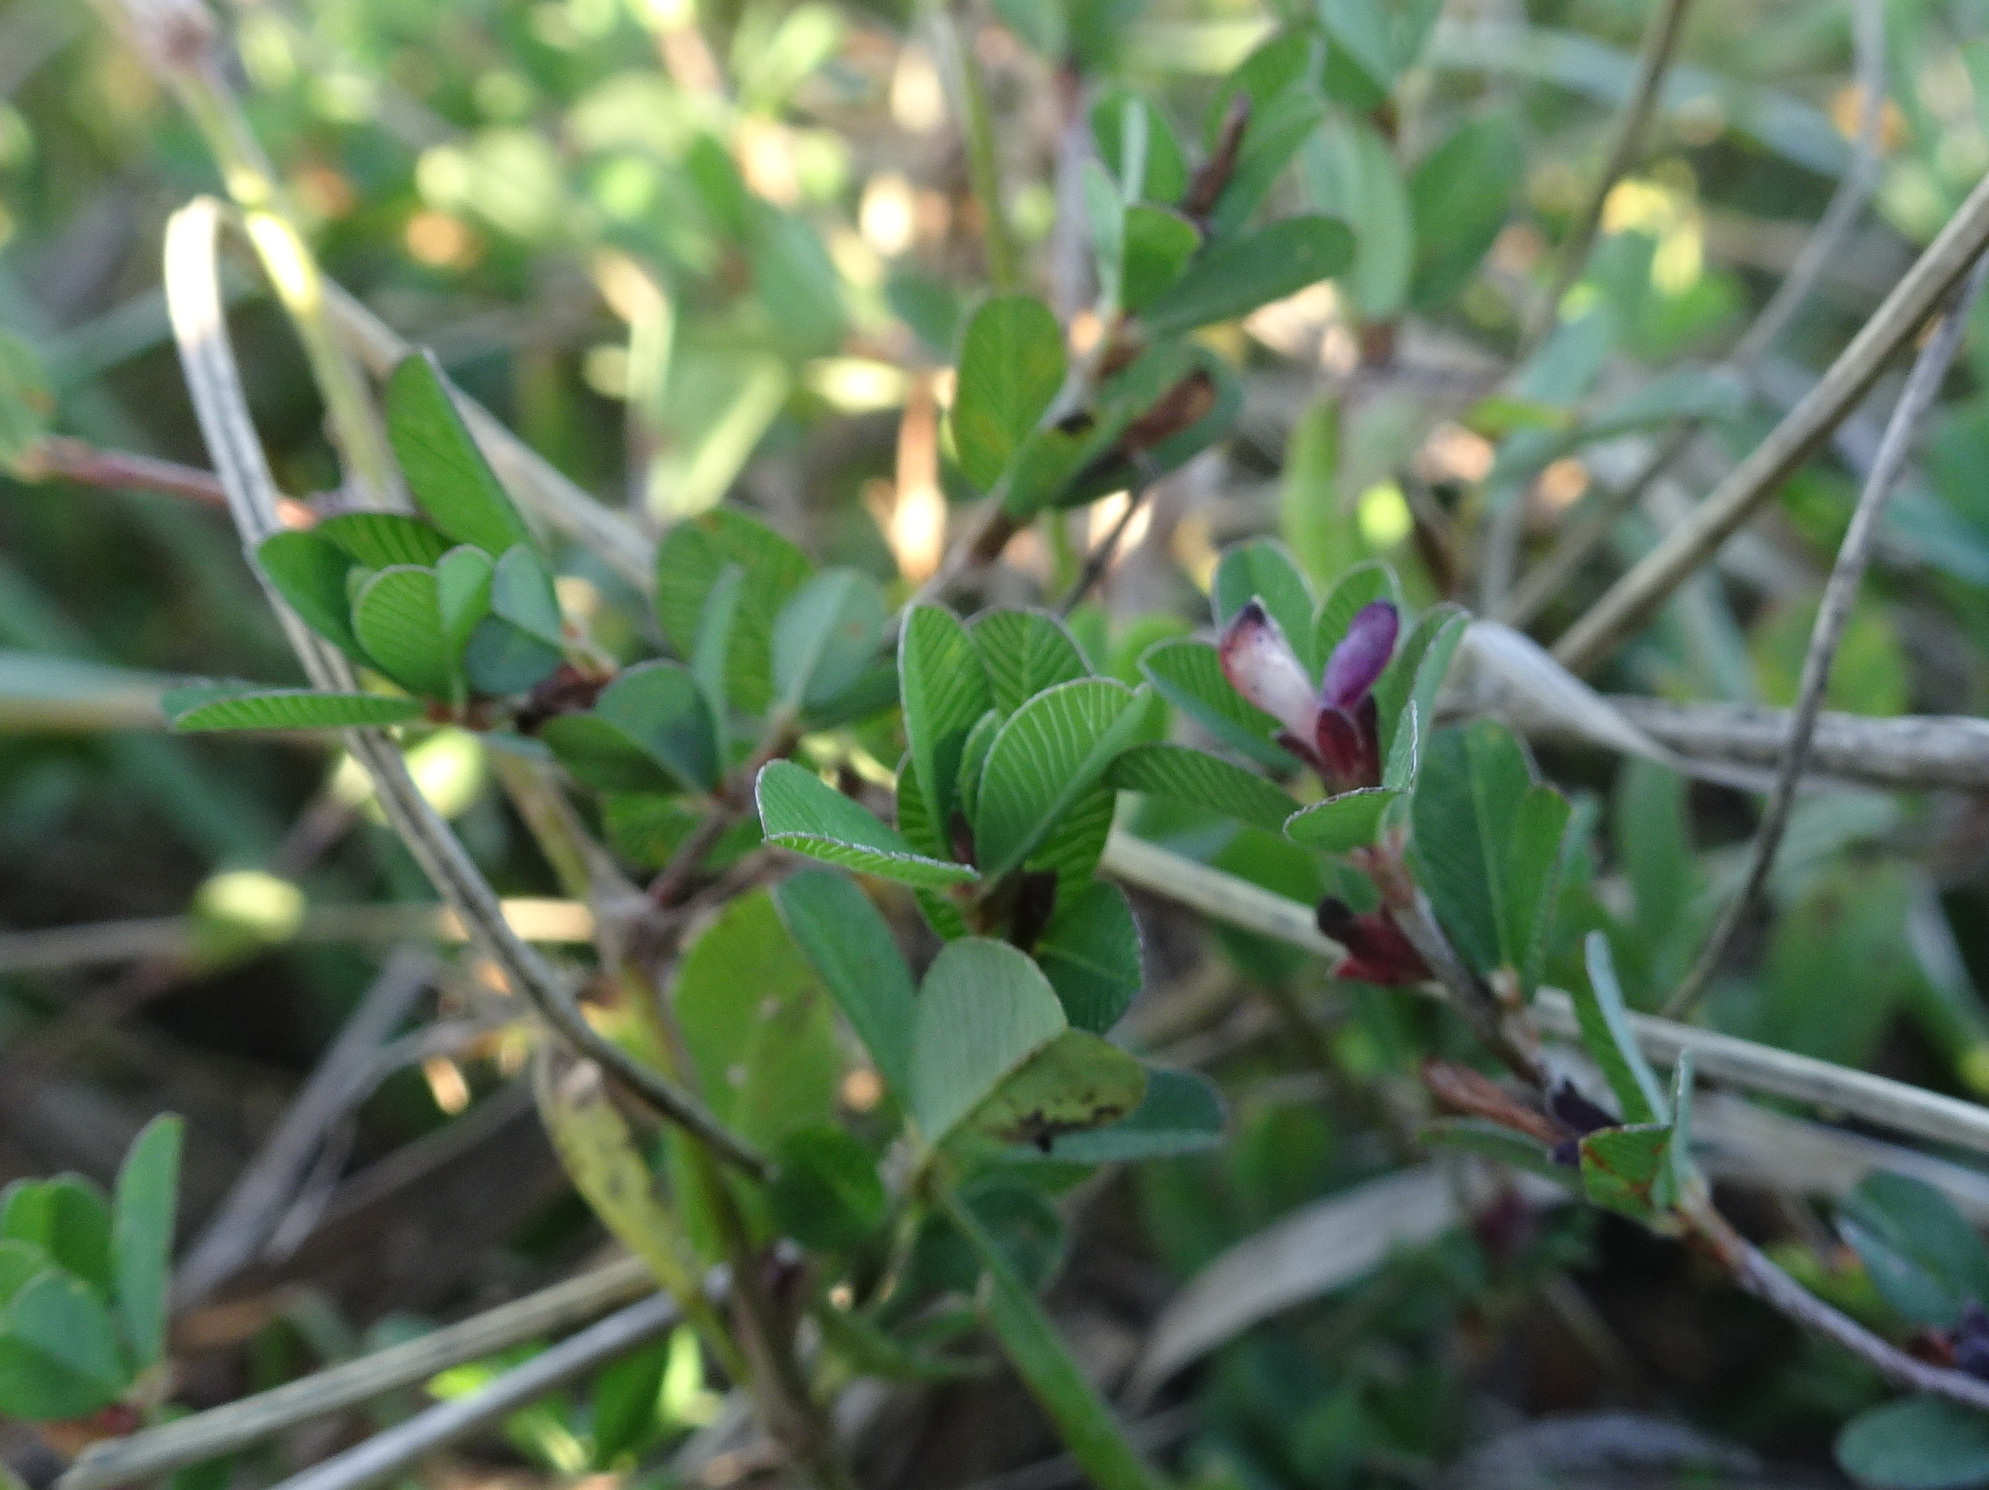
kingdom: Plantae
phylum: Tracheophyta
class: Magnoliopsida
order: Fabales
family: Fabaceae
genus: Kummerowia
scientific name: Kummerowia striata
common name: Japanese clover
